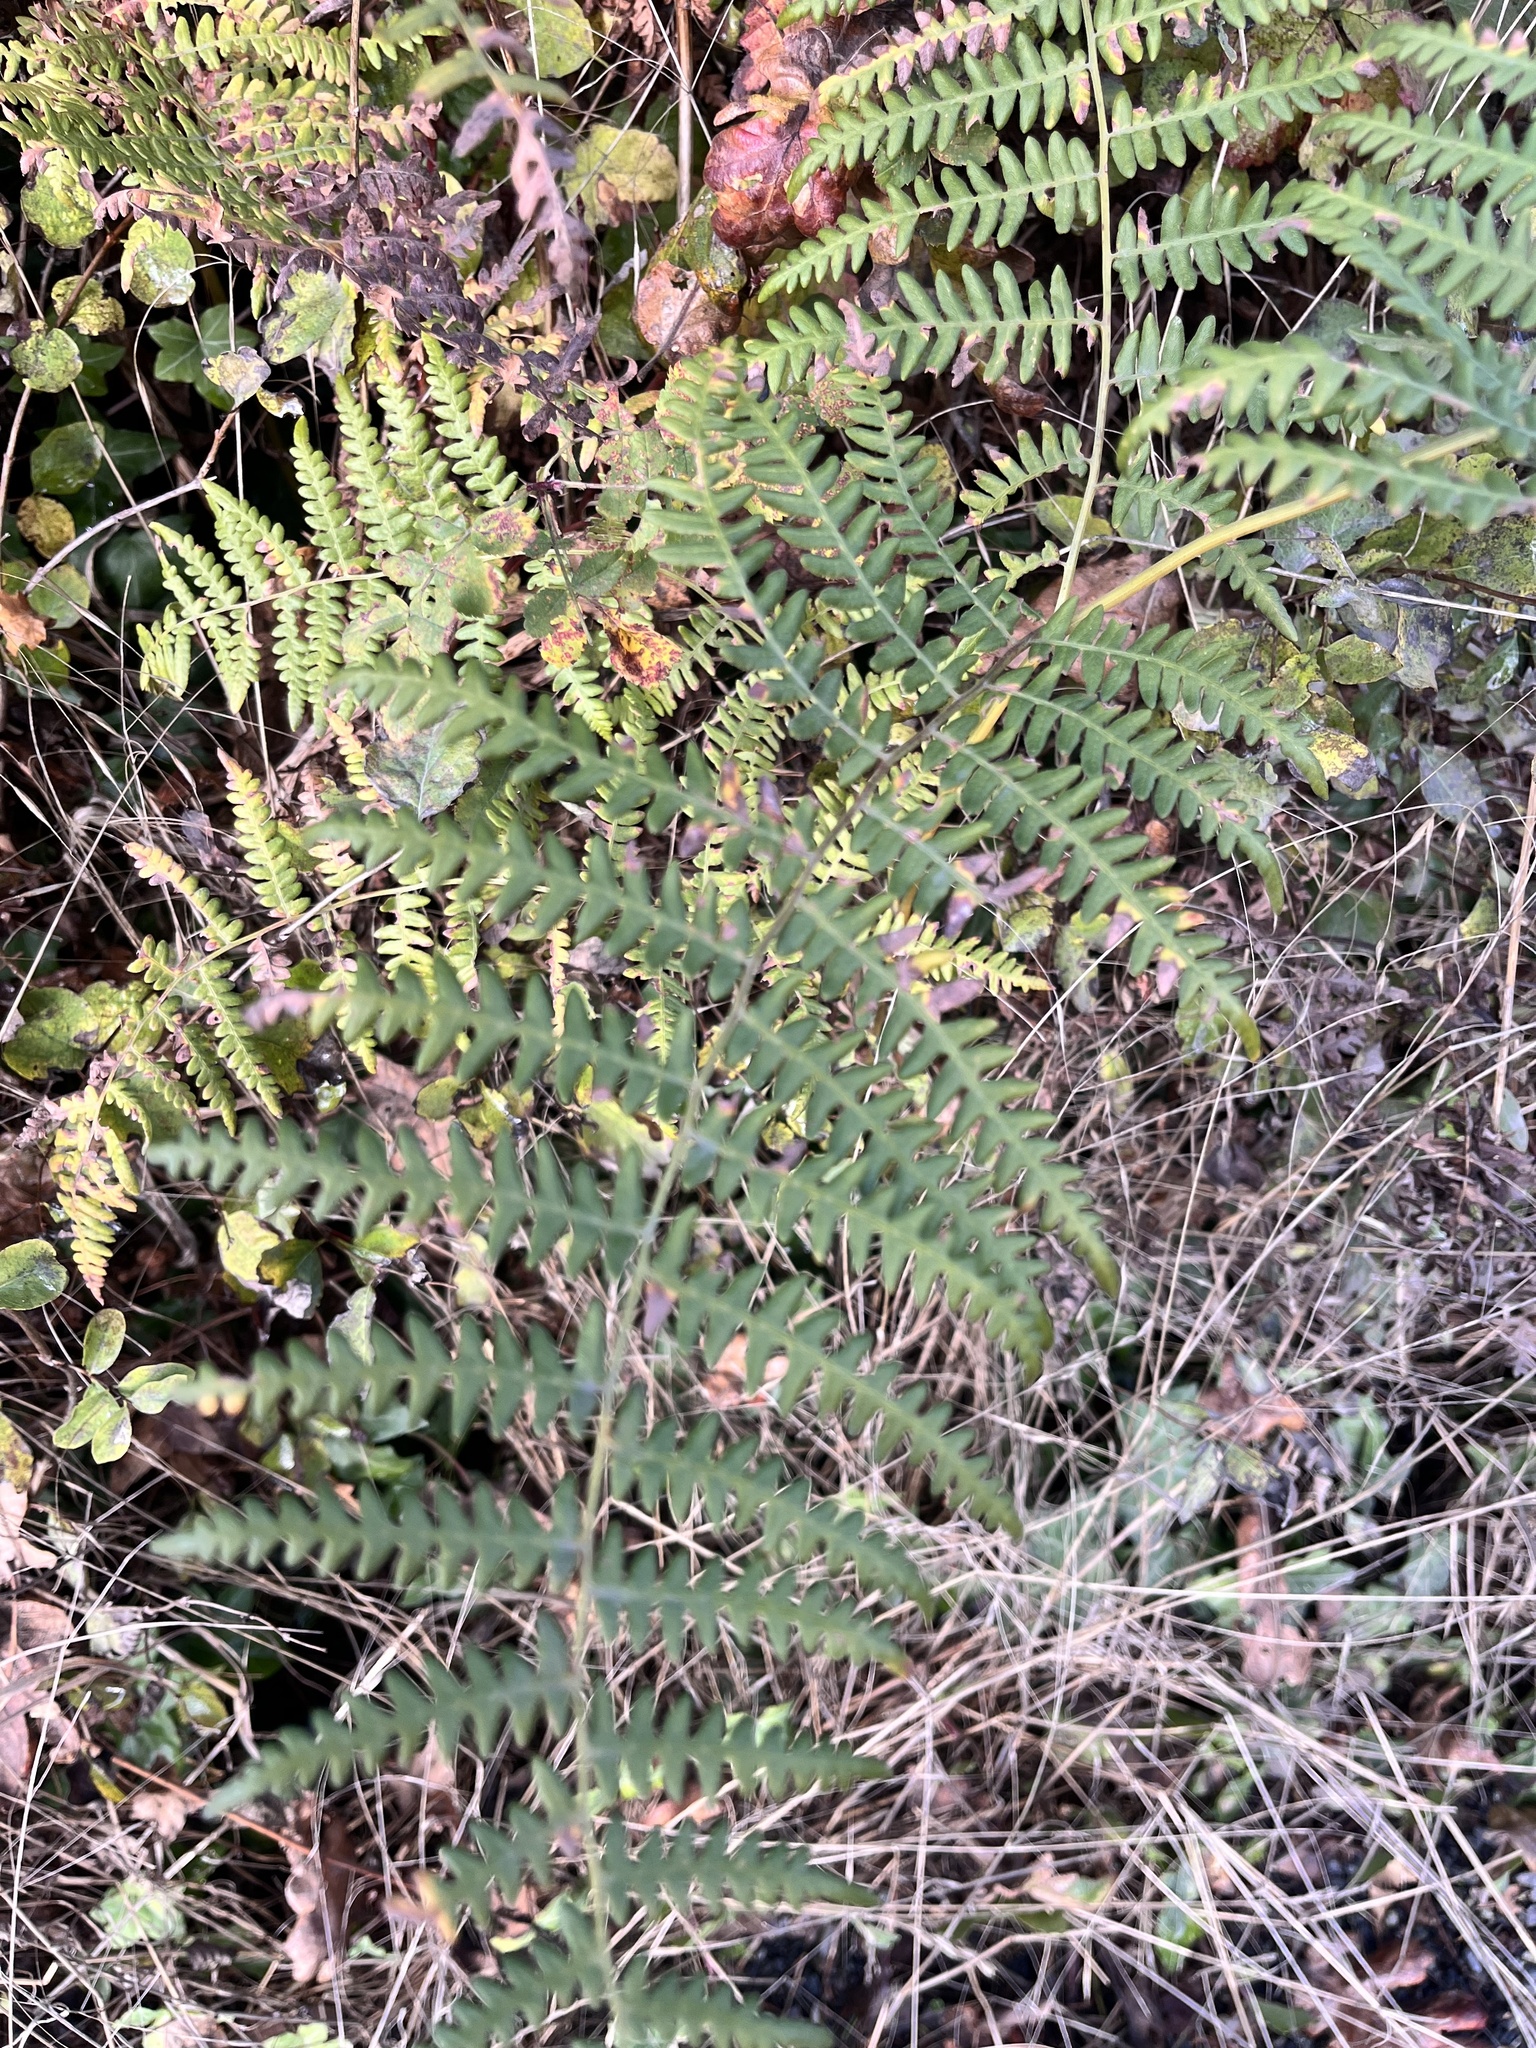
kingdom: Plantae
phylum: Tracheophyta
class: Polypodiopsida
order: Polypodiales
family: Dennstaedtiaceae
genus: Pteridium
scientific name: Pteridium aquilinum
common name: Bracken
